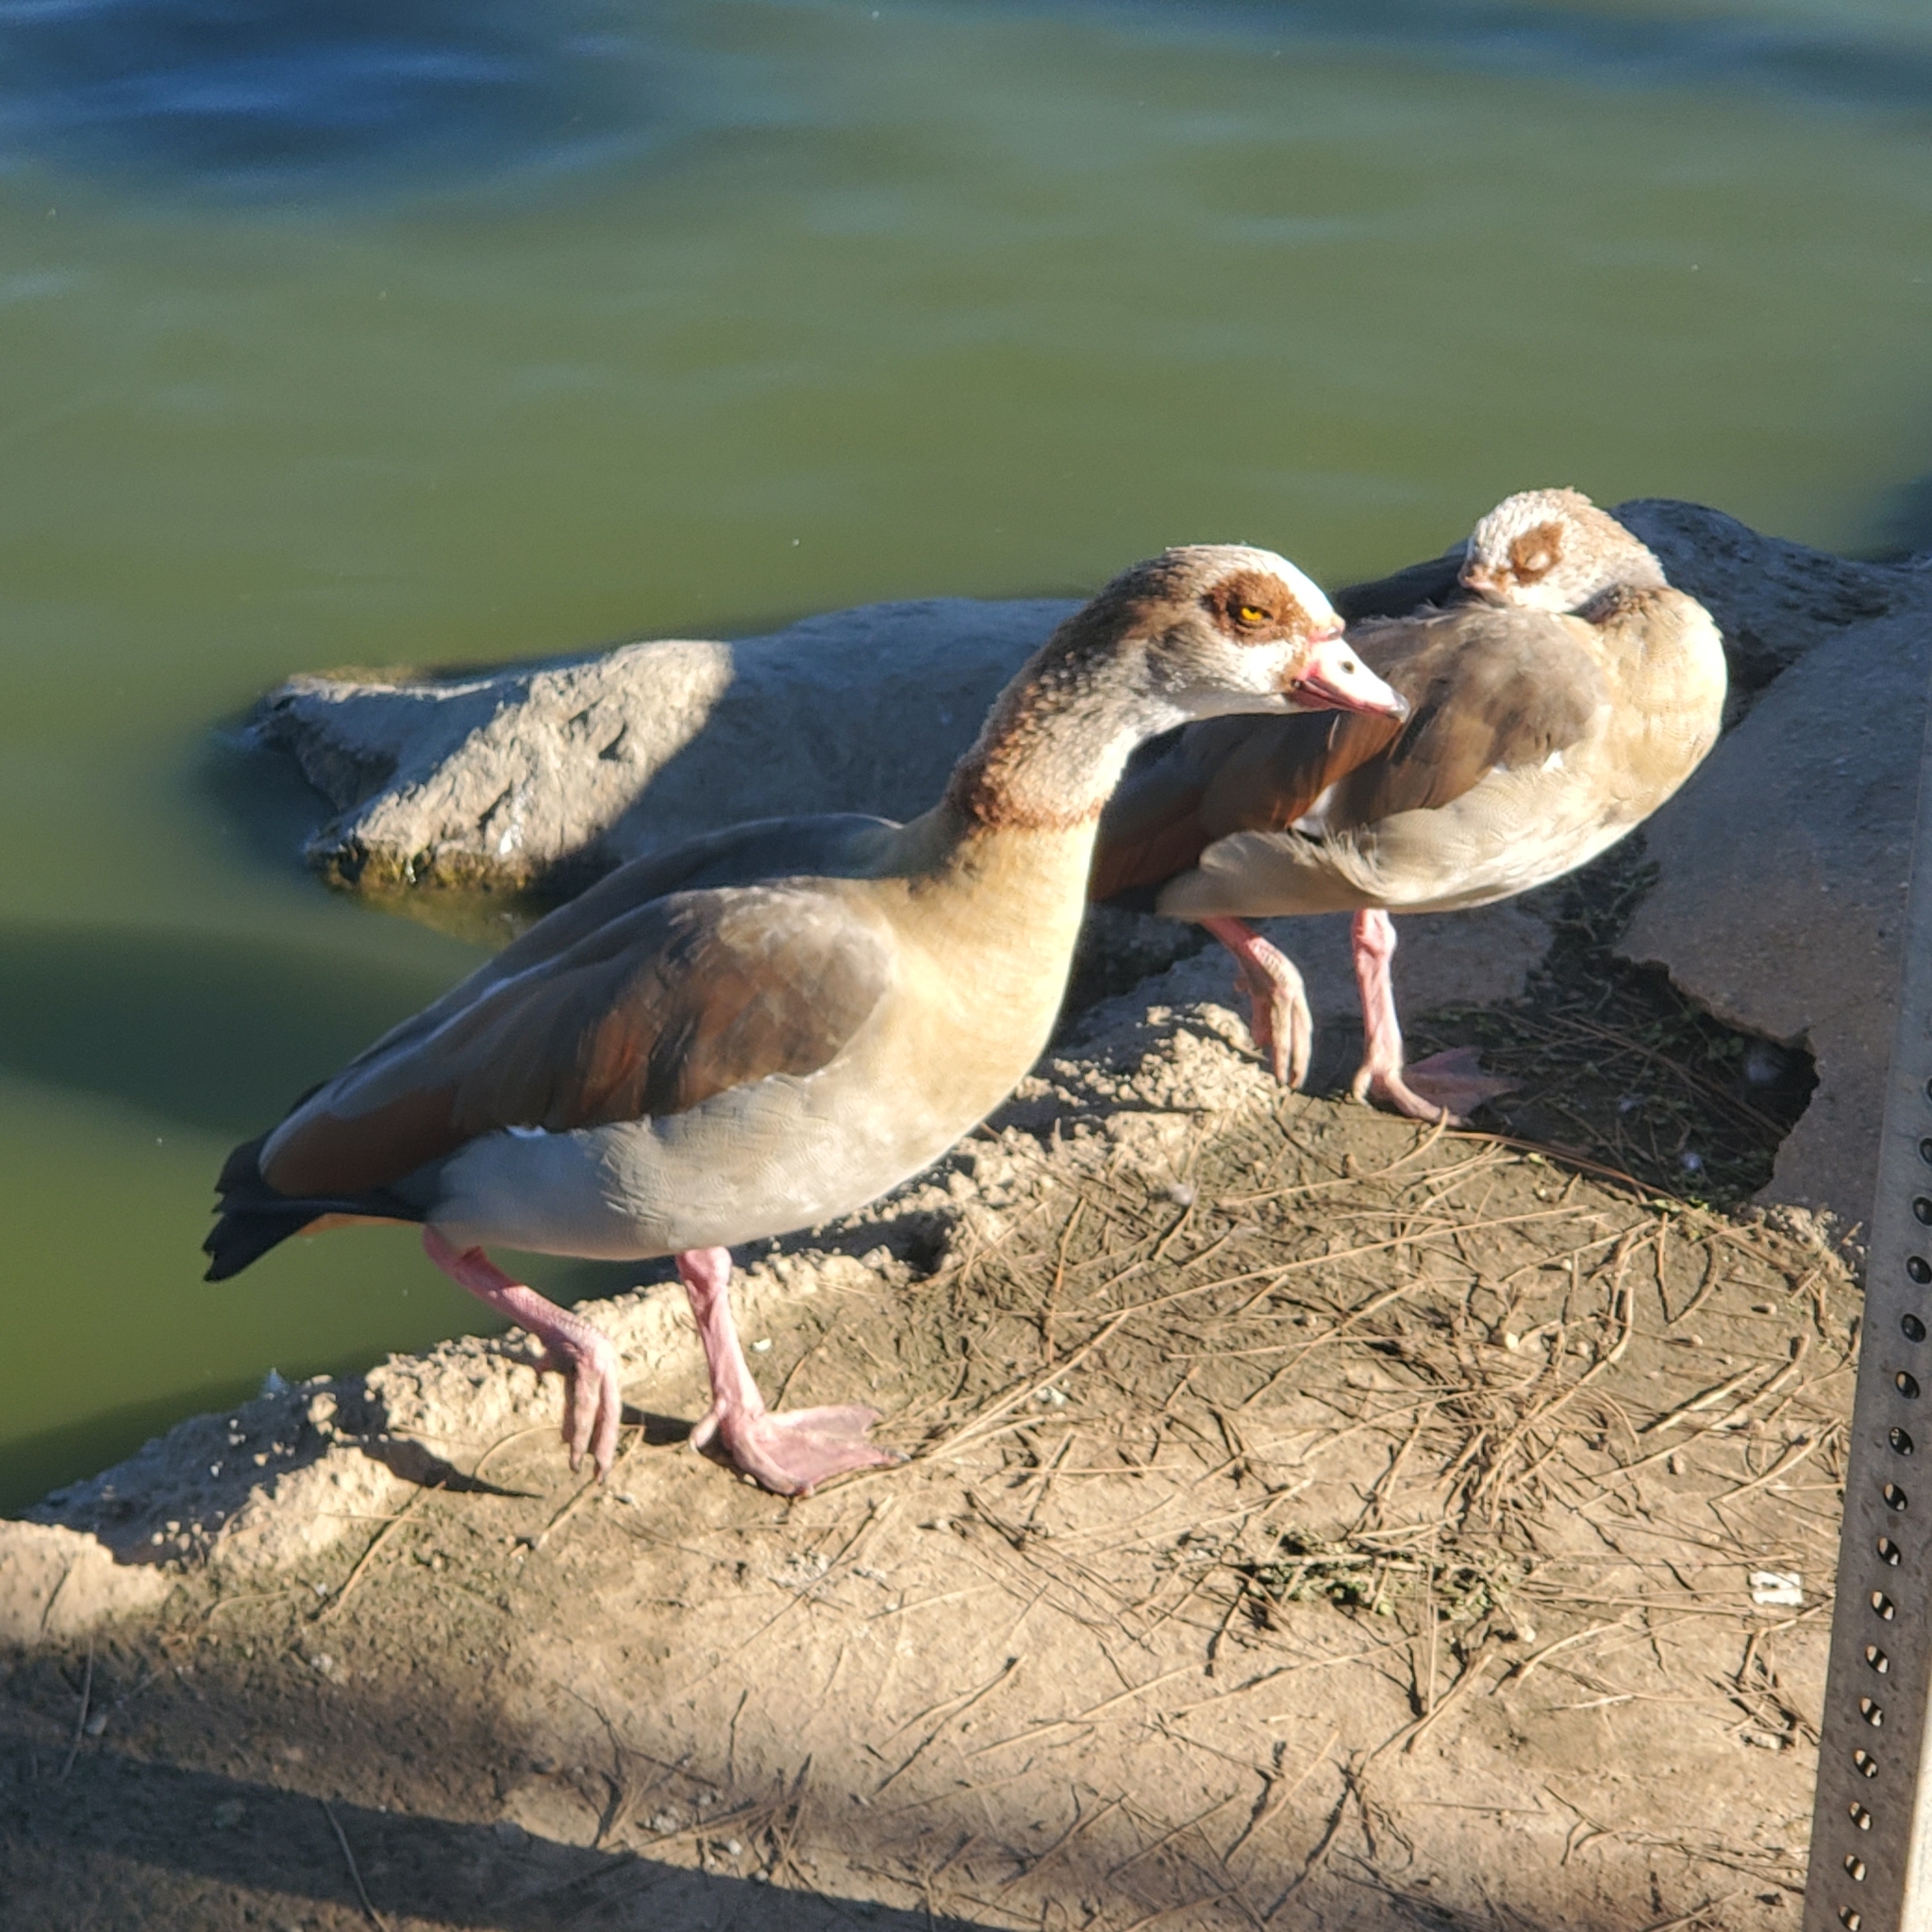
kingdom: Animalia
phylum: Chordata
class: Aves
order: Anseriformes
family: Anatidae
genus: Alopochen
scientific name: Alopochen aegyptiaca
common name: Egyptian goose
